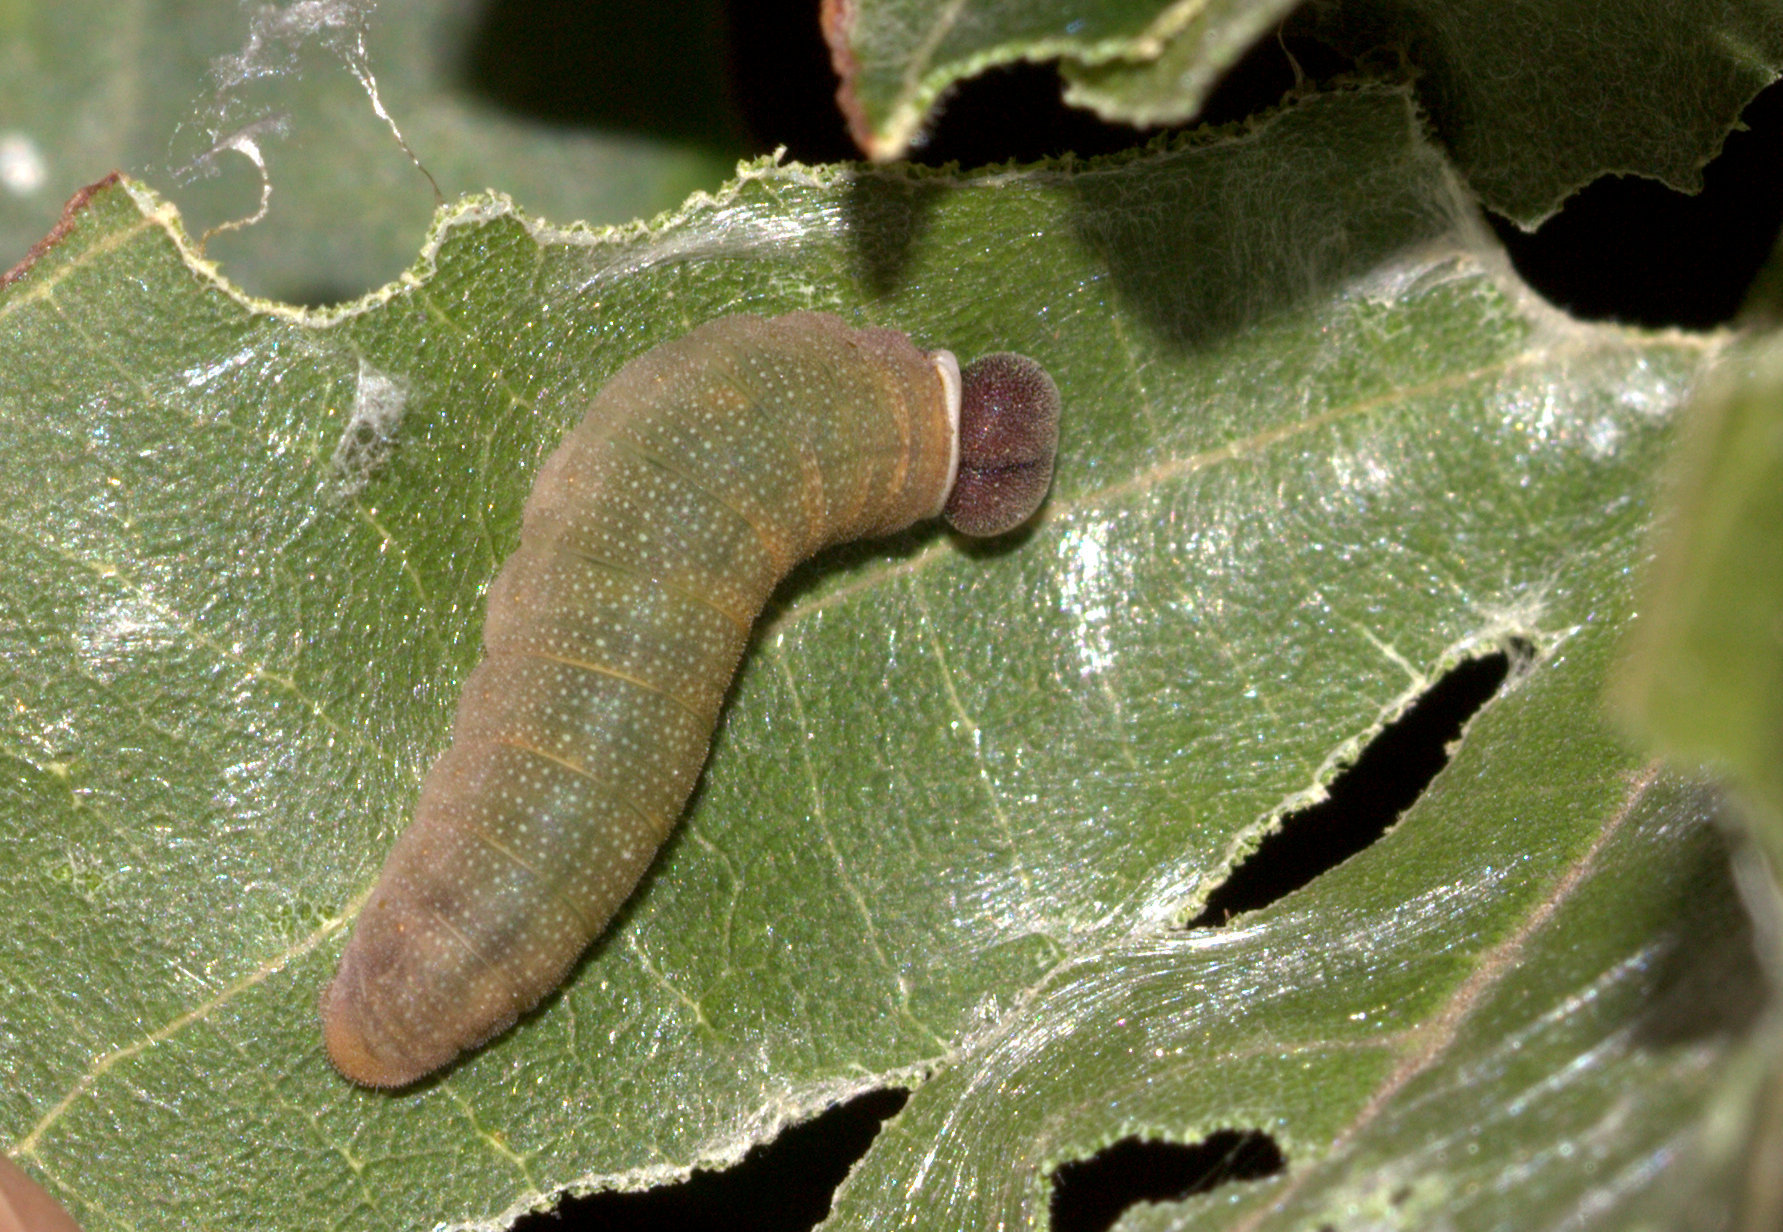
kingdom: Animalia
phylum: Arthropoda
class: Insecta
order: Lepidoptera
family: Hesperiidae
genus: Coladenia
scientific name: Coladenia
